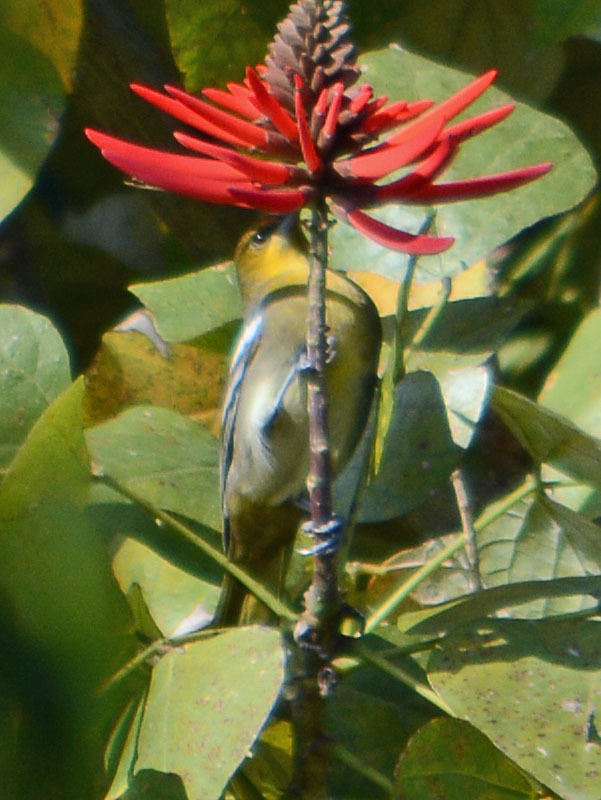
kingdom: Animalia
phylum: Chordata
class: Aves
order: Passeriformes
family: Icteridae
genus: Icterus
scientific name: Icterus bullockii
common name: Bullock's oriole
